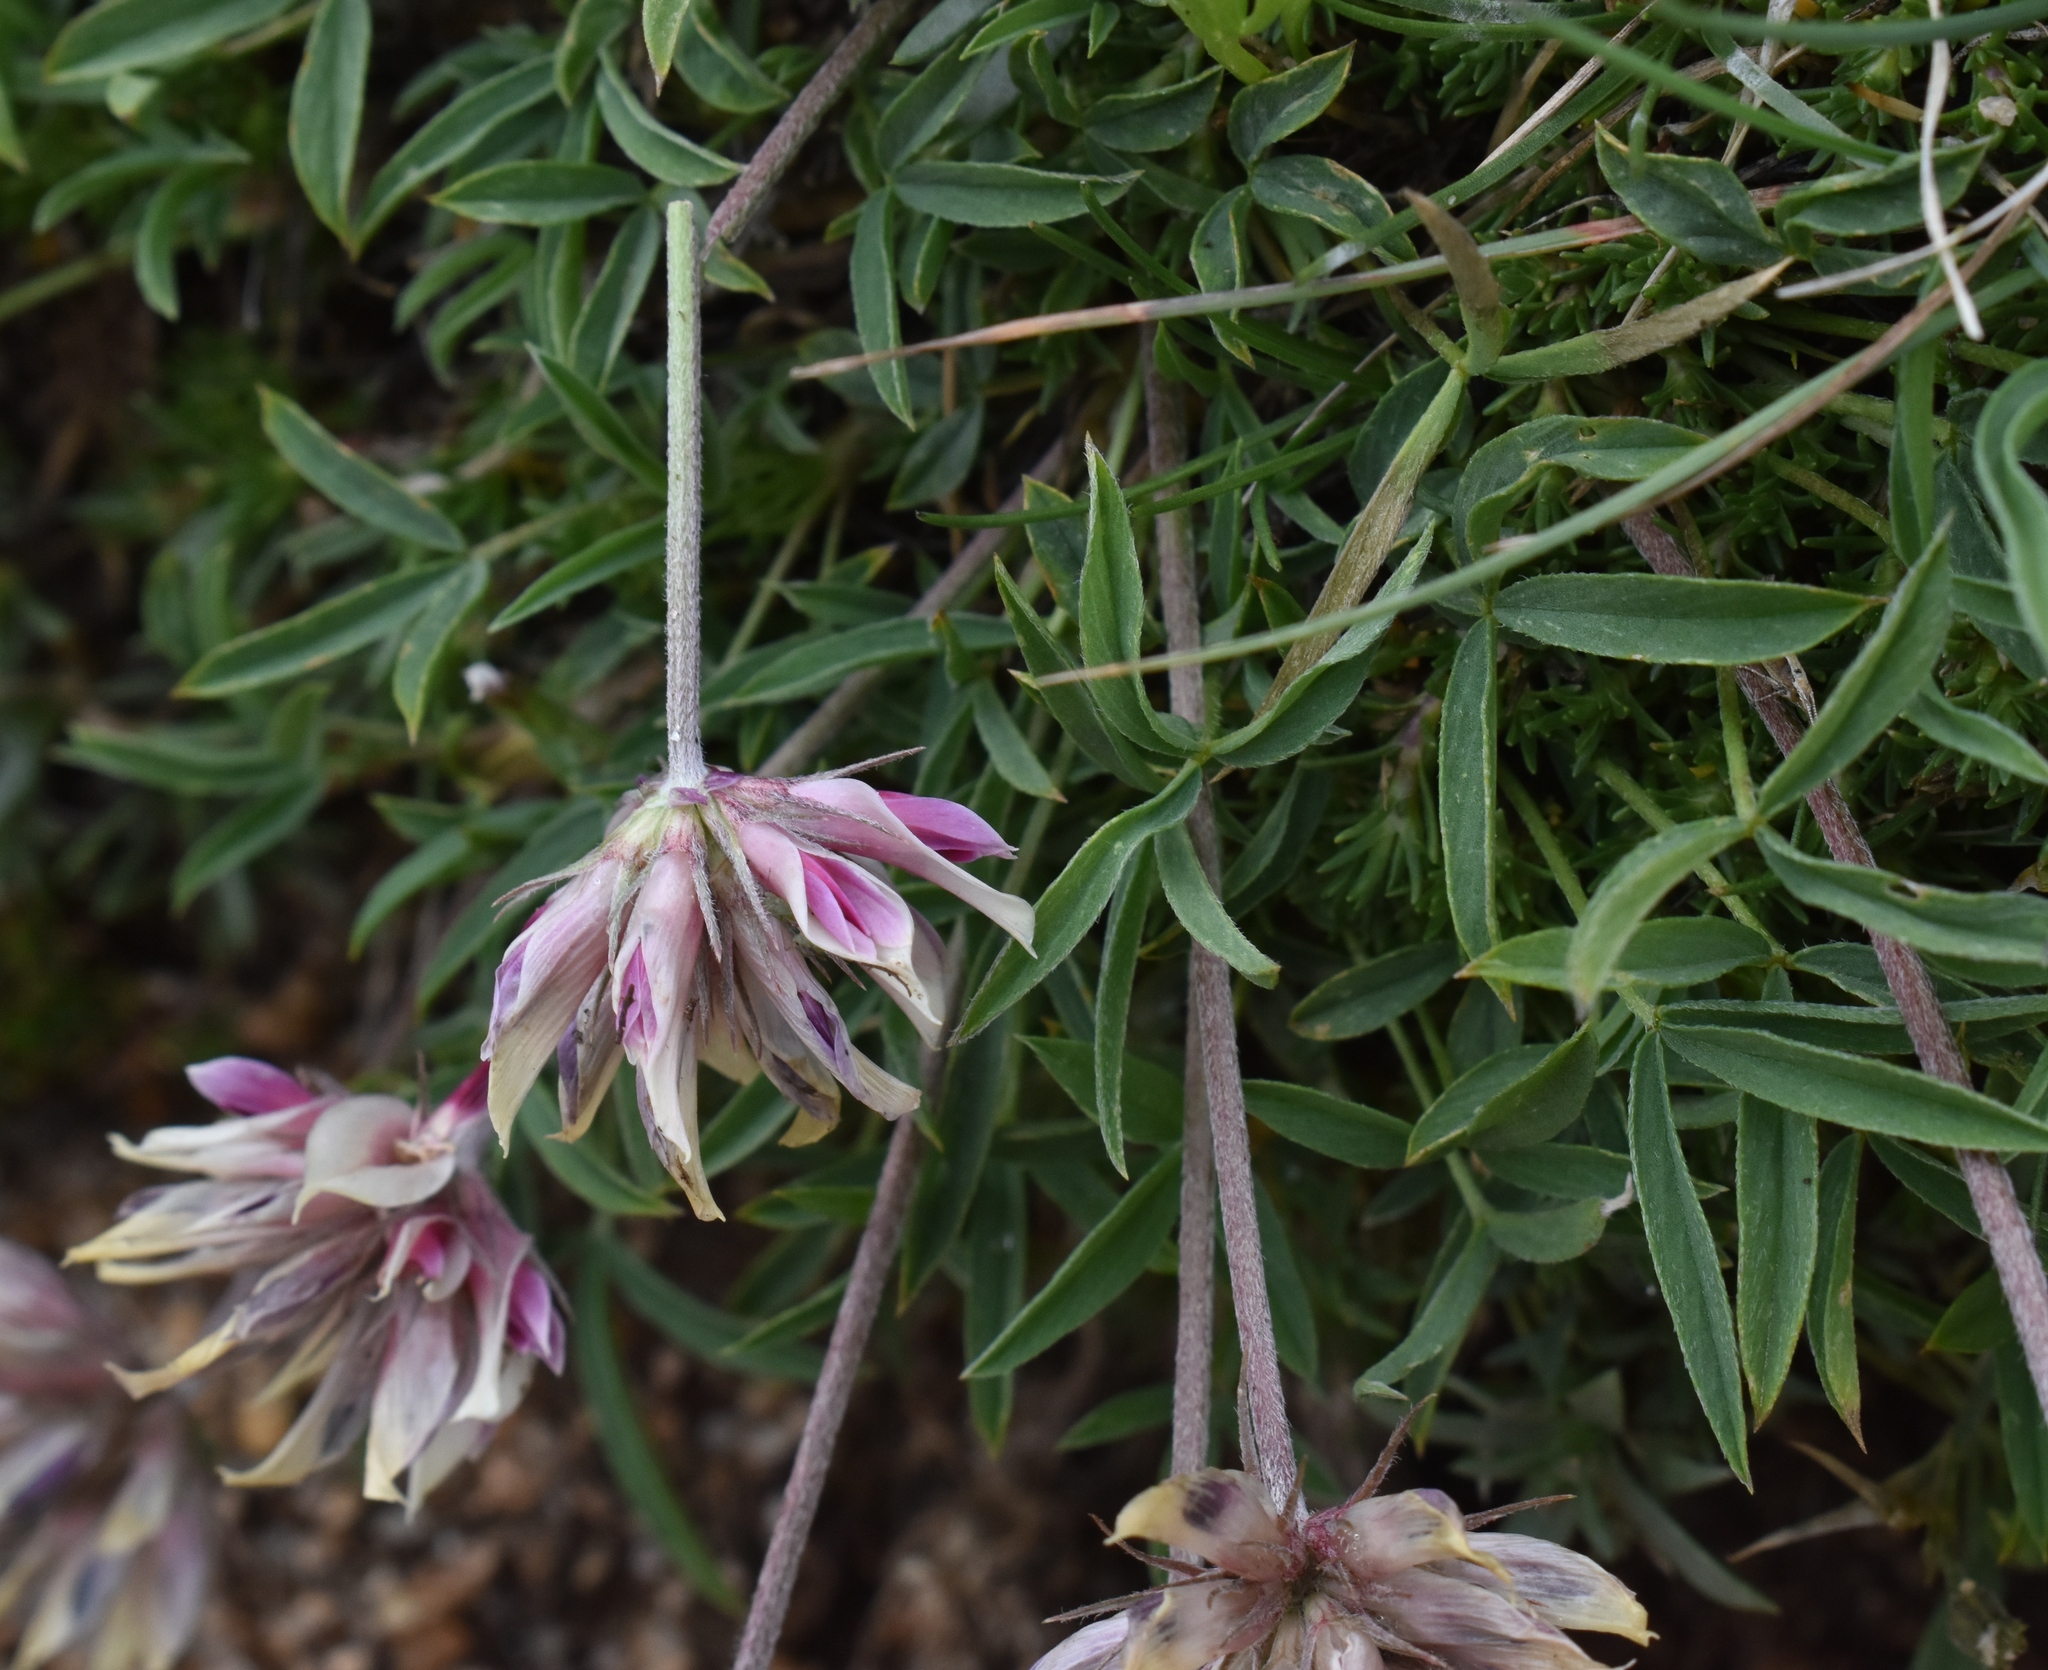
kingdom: Plantae
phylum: Tracheophyta
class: Magnoliopsida
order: Fabales
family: Fabaceae
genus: Trifolium
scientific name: Trifolium dasyphyllum
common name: Whip-root clover
